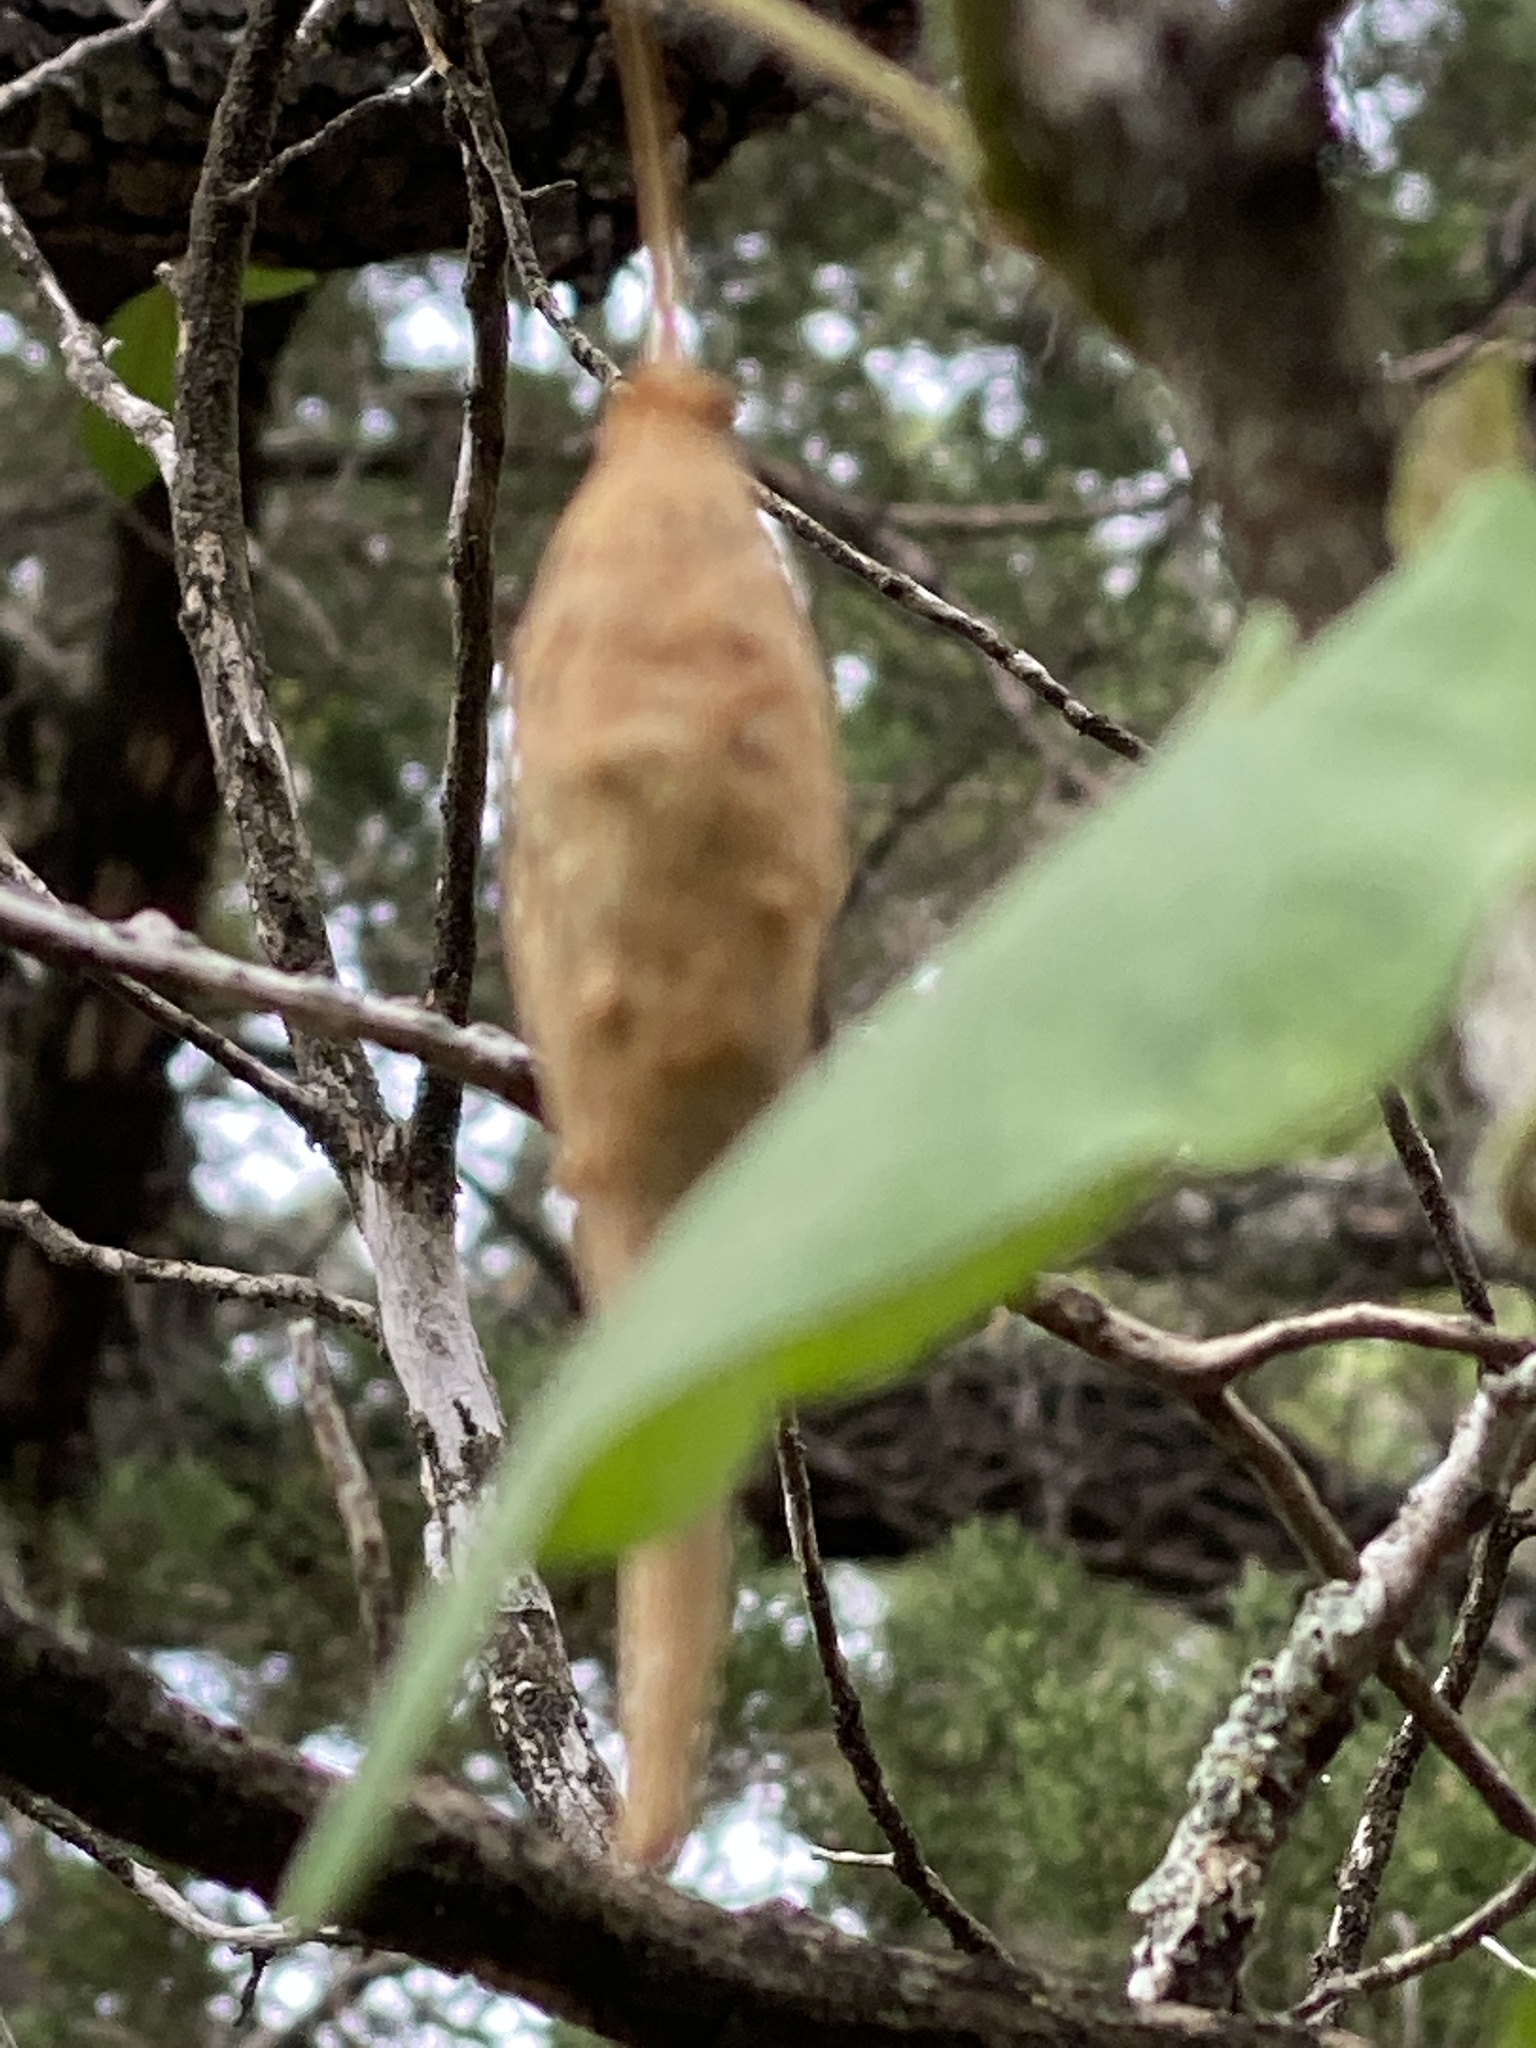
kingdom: Plantae
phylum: Tracheophyta
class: Magnoliopsida
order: Gentianales
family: Apocynaceae
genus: Dictyanthus
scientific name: Dictyanthus reticulatus
